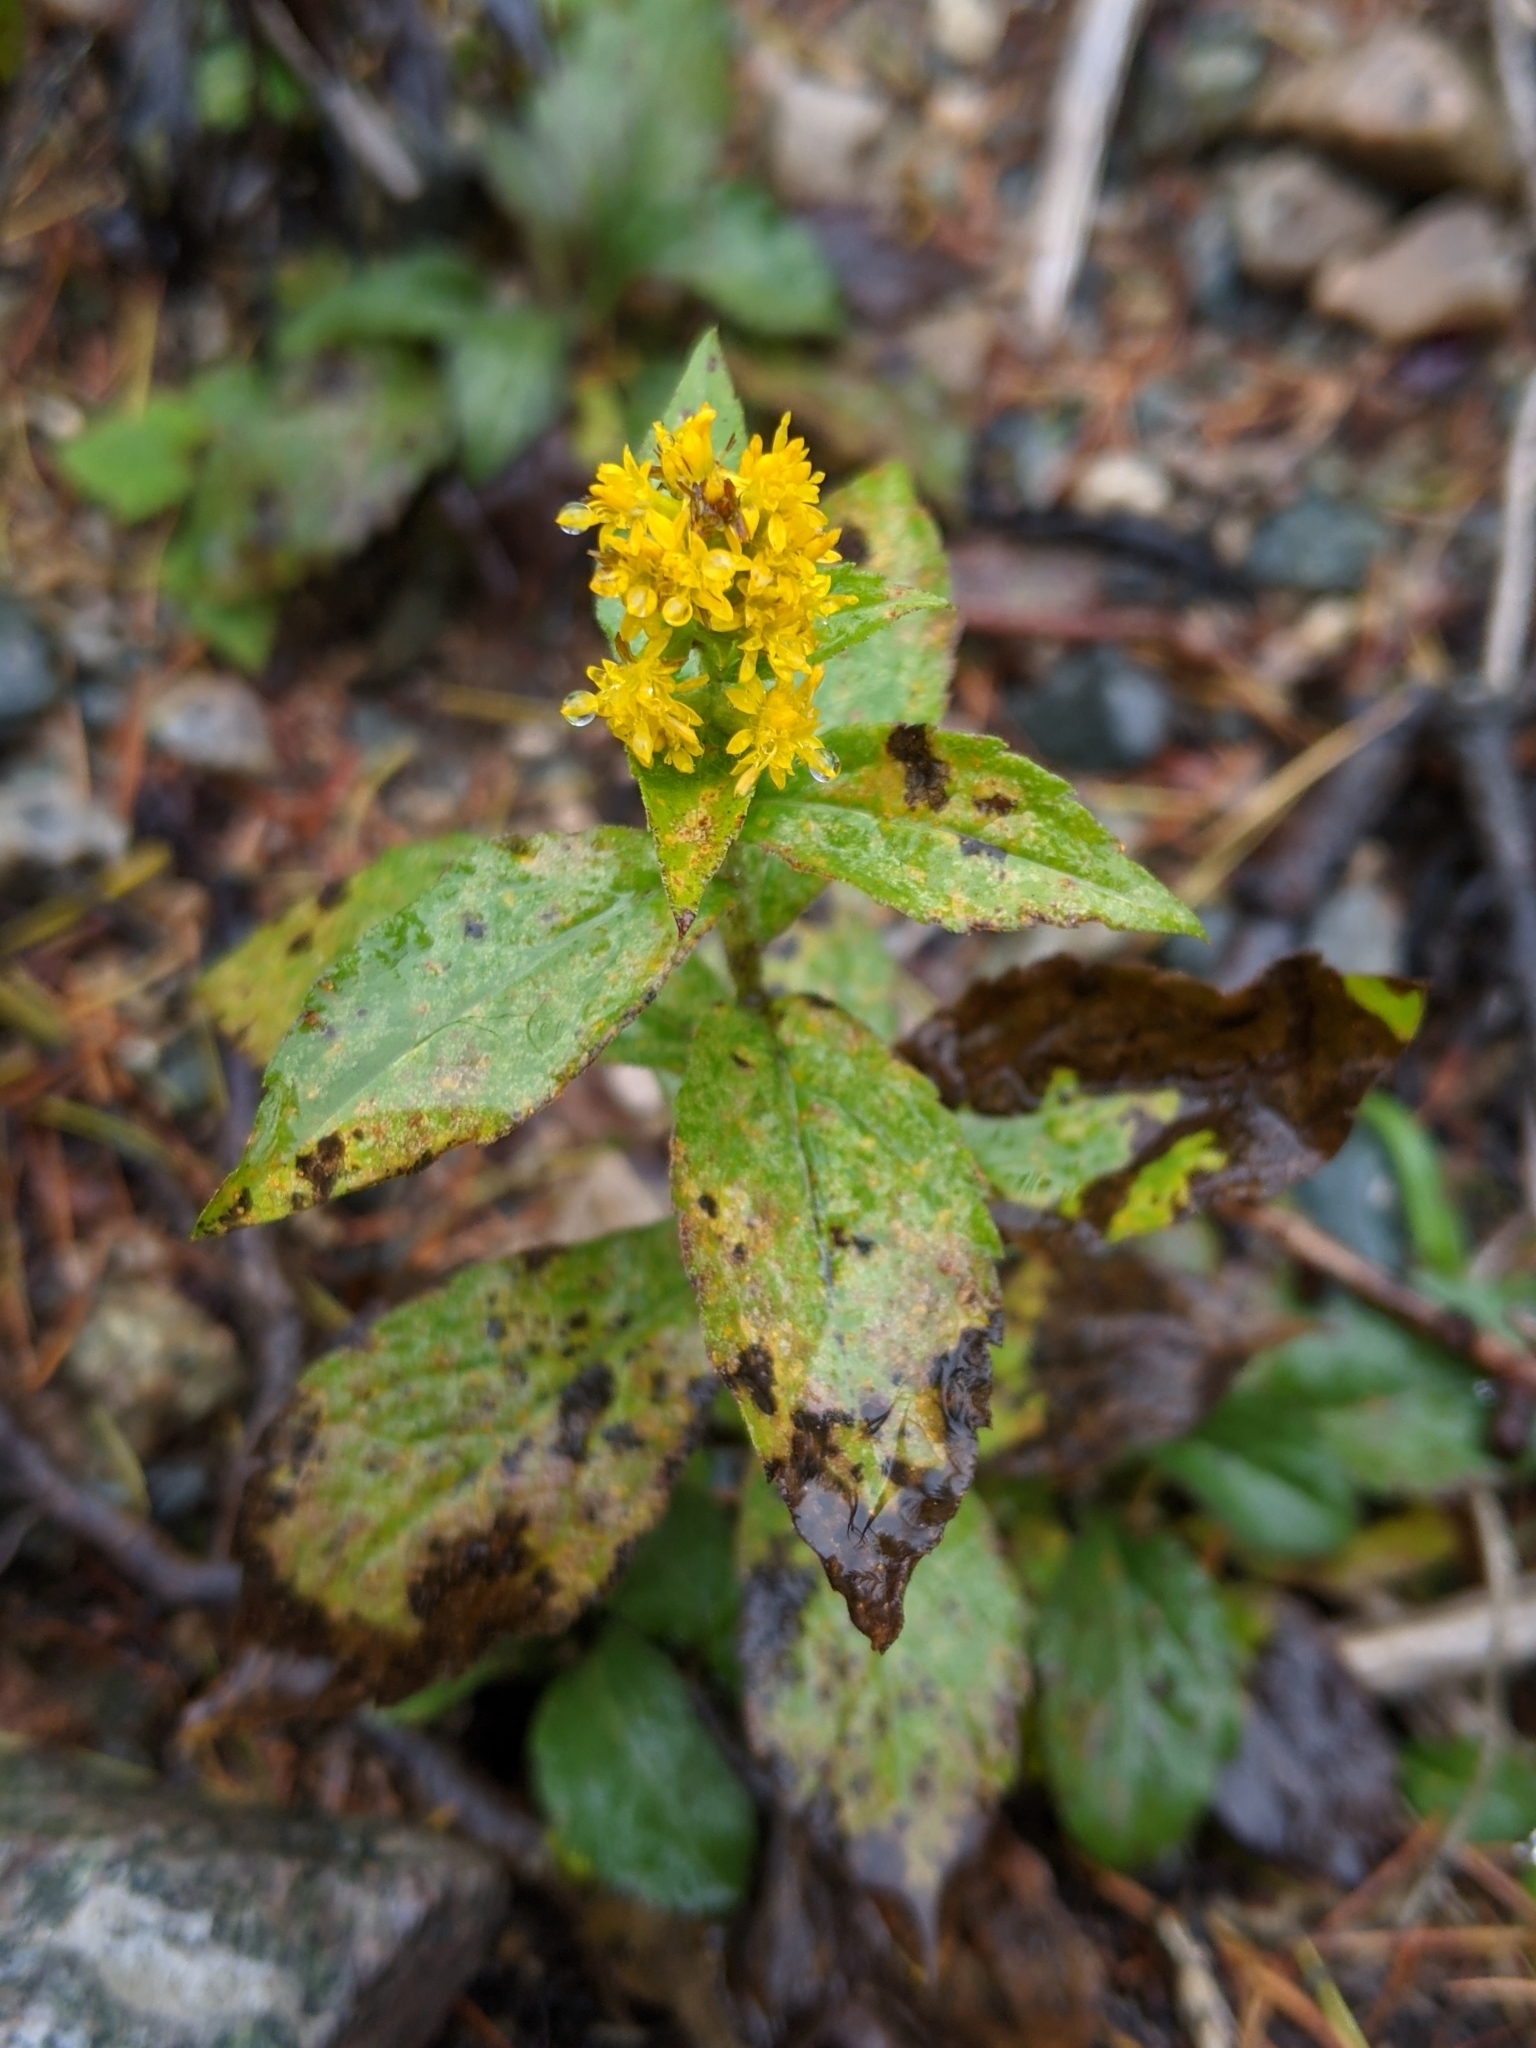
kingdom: Plantae
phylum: Tracheophyta
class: Magnoliopsida
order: Asterales
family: Asteraceae
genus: Solidago
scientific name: Solidago rugosa
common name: Rough-stemmed goldenrod
